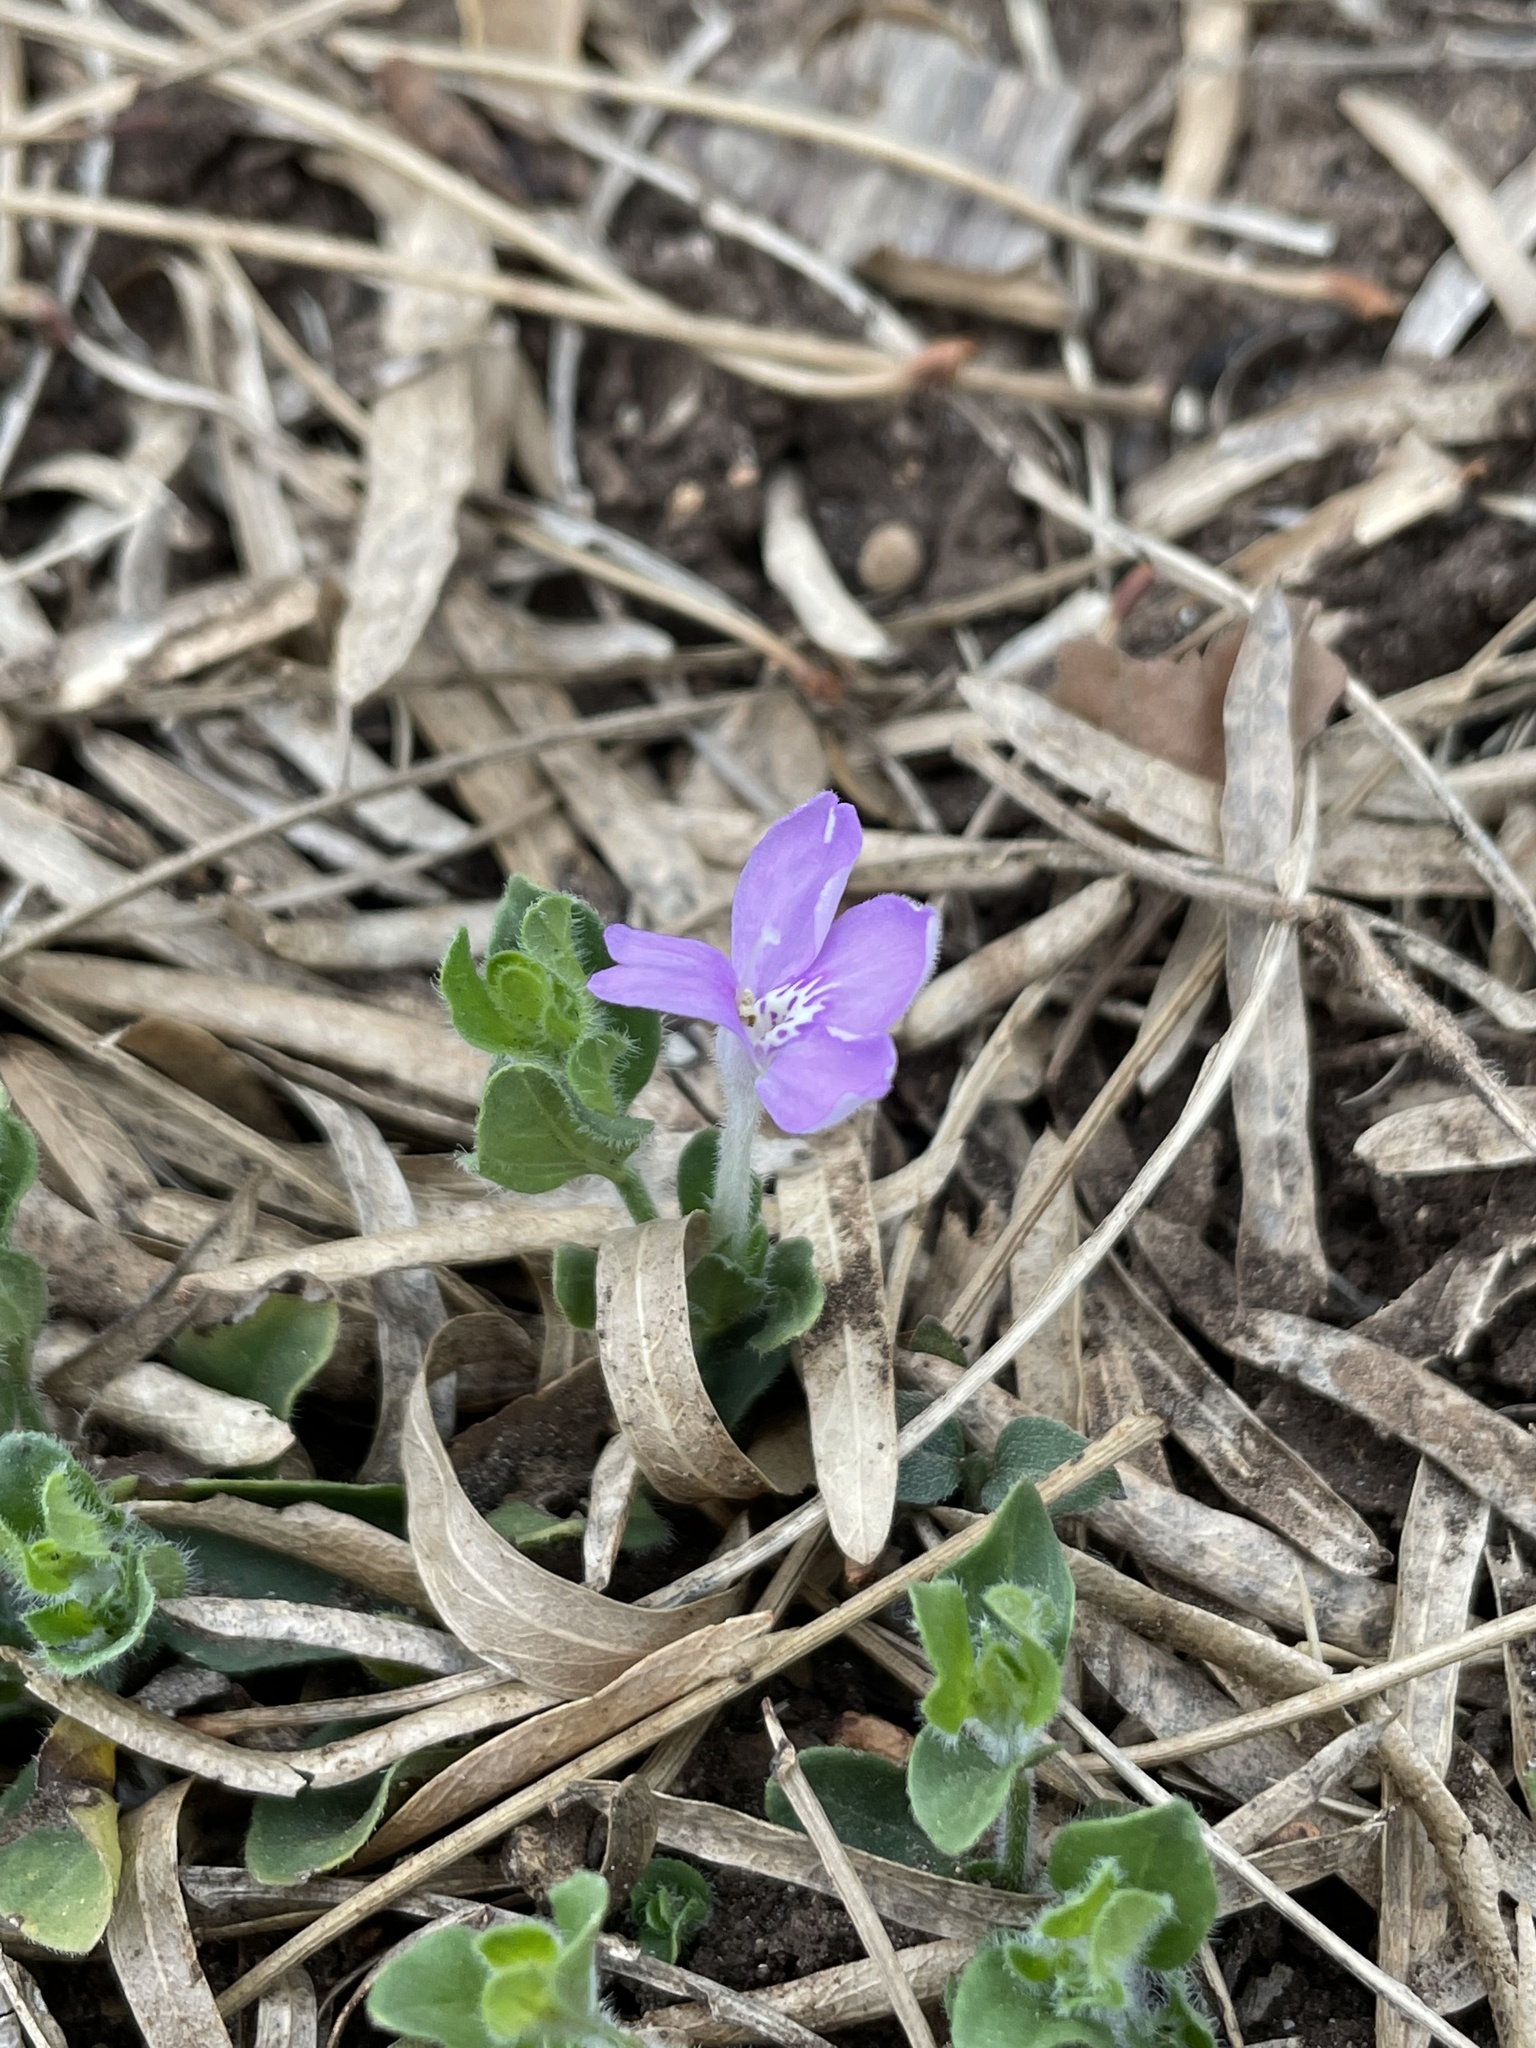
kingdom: Plantae
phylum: Tracheophyta
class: Magnoliopsida
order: Lamiales
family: Acanthaceae
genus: Justicia
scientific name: Justicia pilosella
